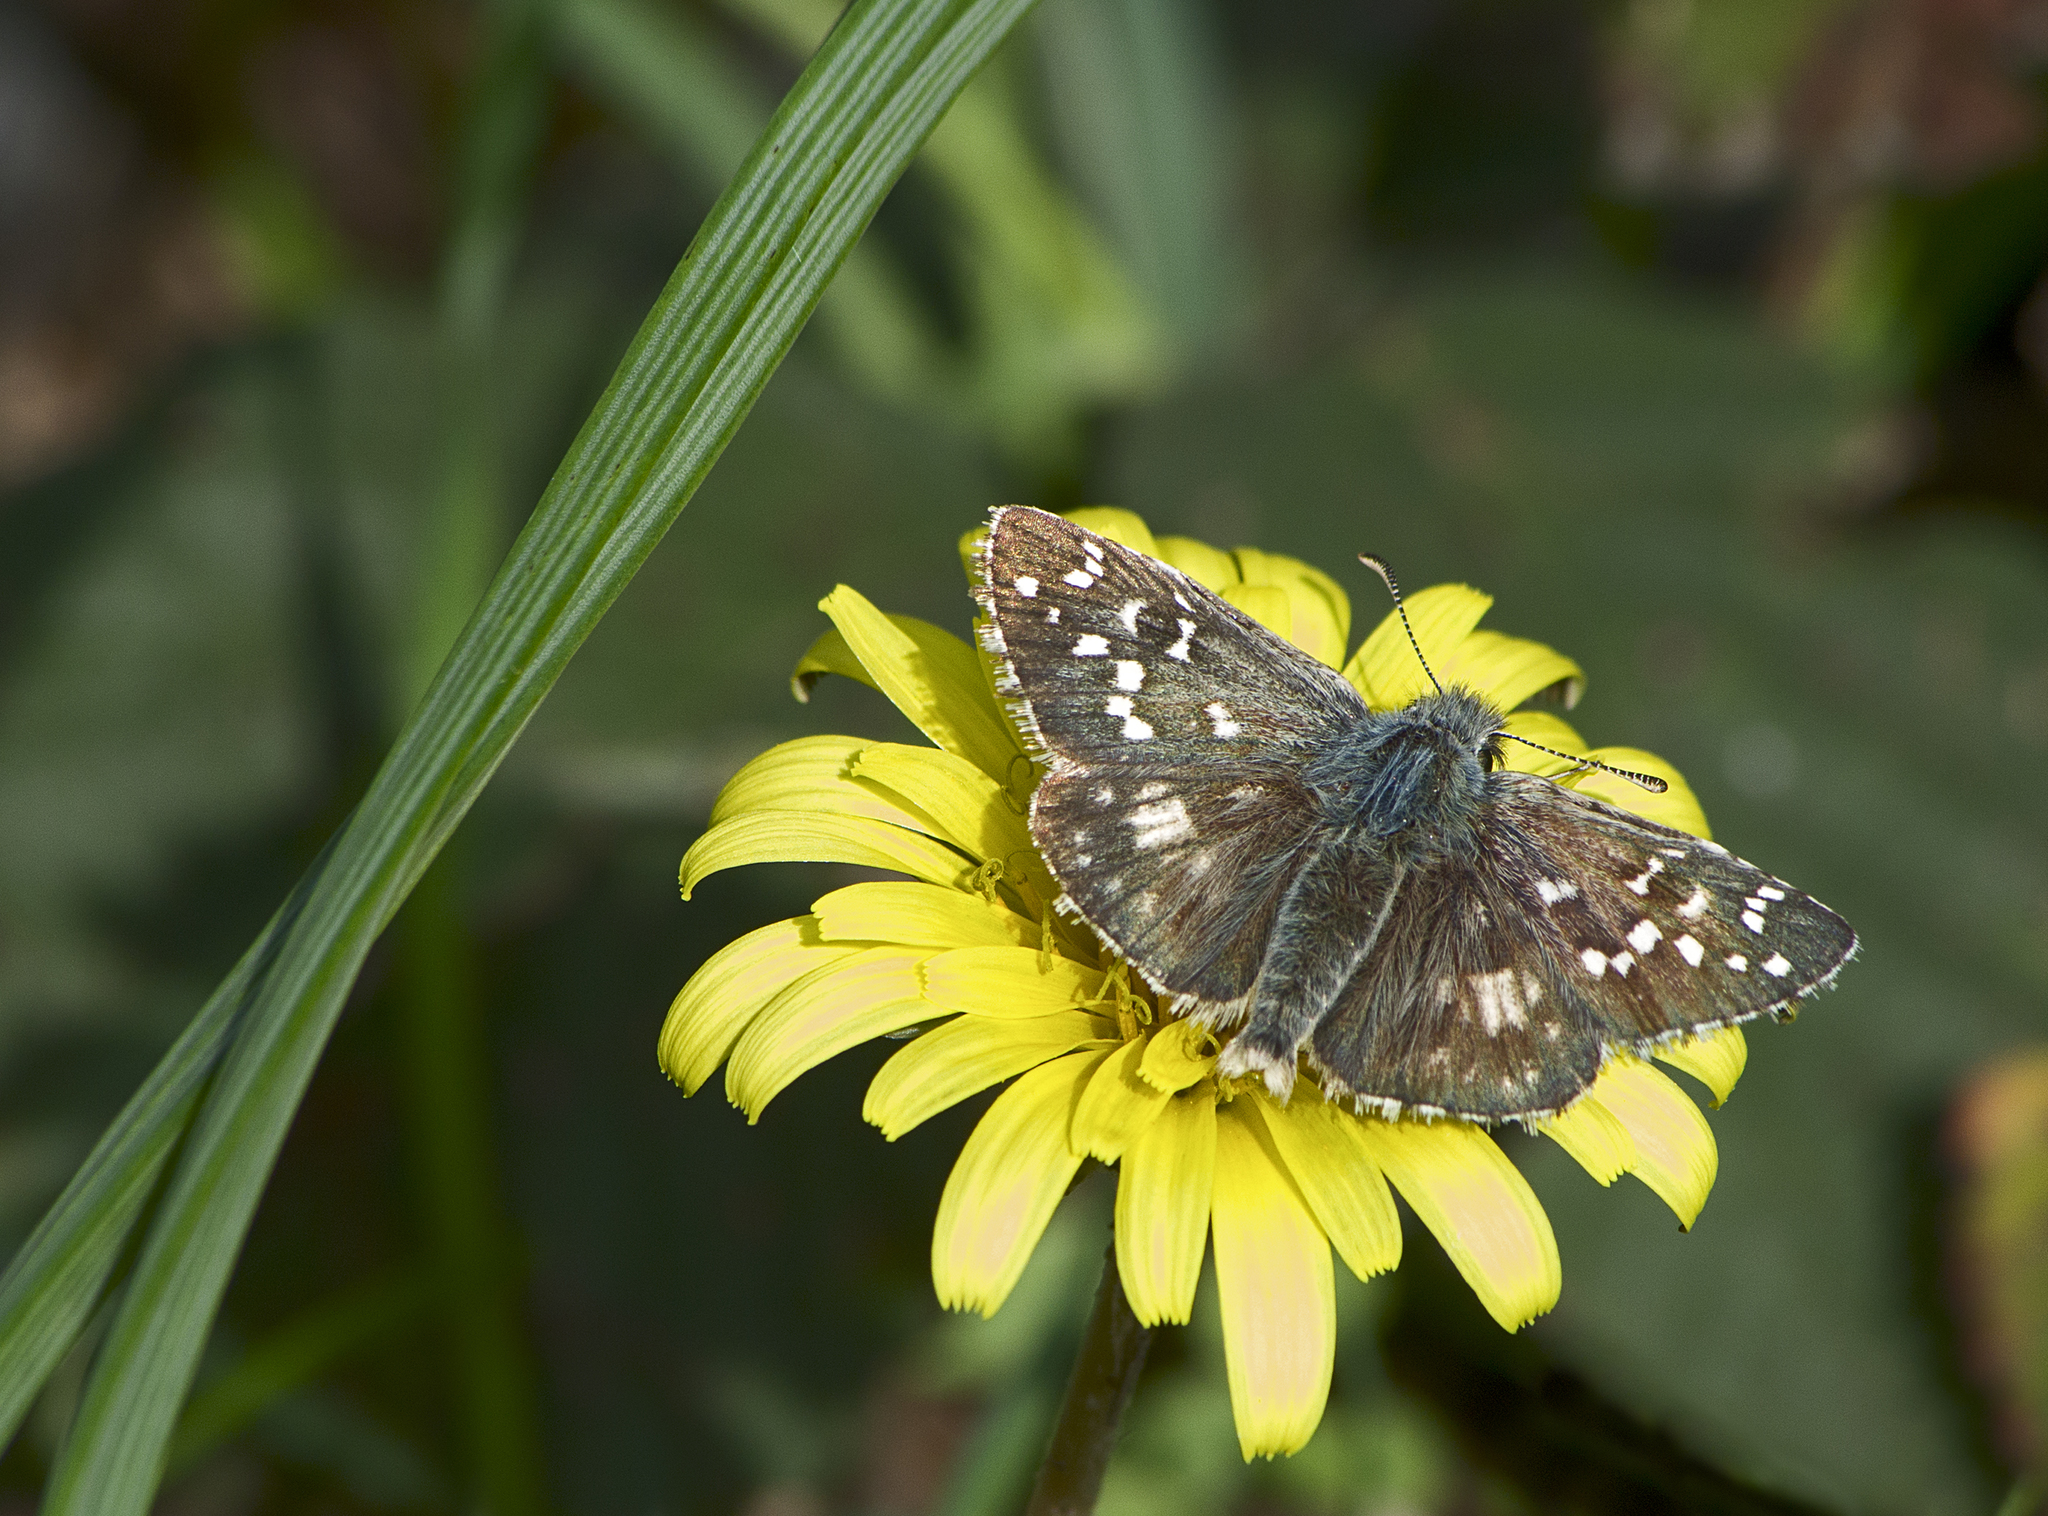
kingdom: Animalia
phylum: Arthropoda
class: Insecta
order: Lepidoptera
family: Hesperiidae
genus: Pyrgus
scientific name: Pyrgus armoricanus
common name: Oberthür's grizzled skipper
